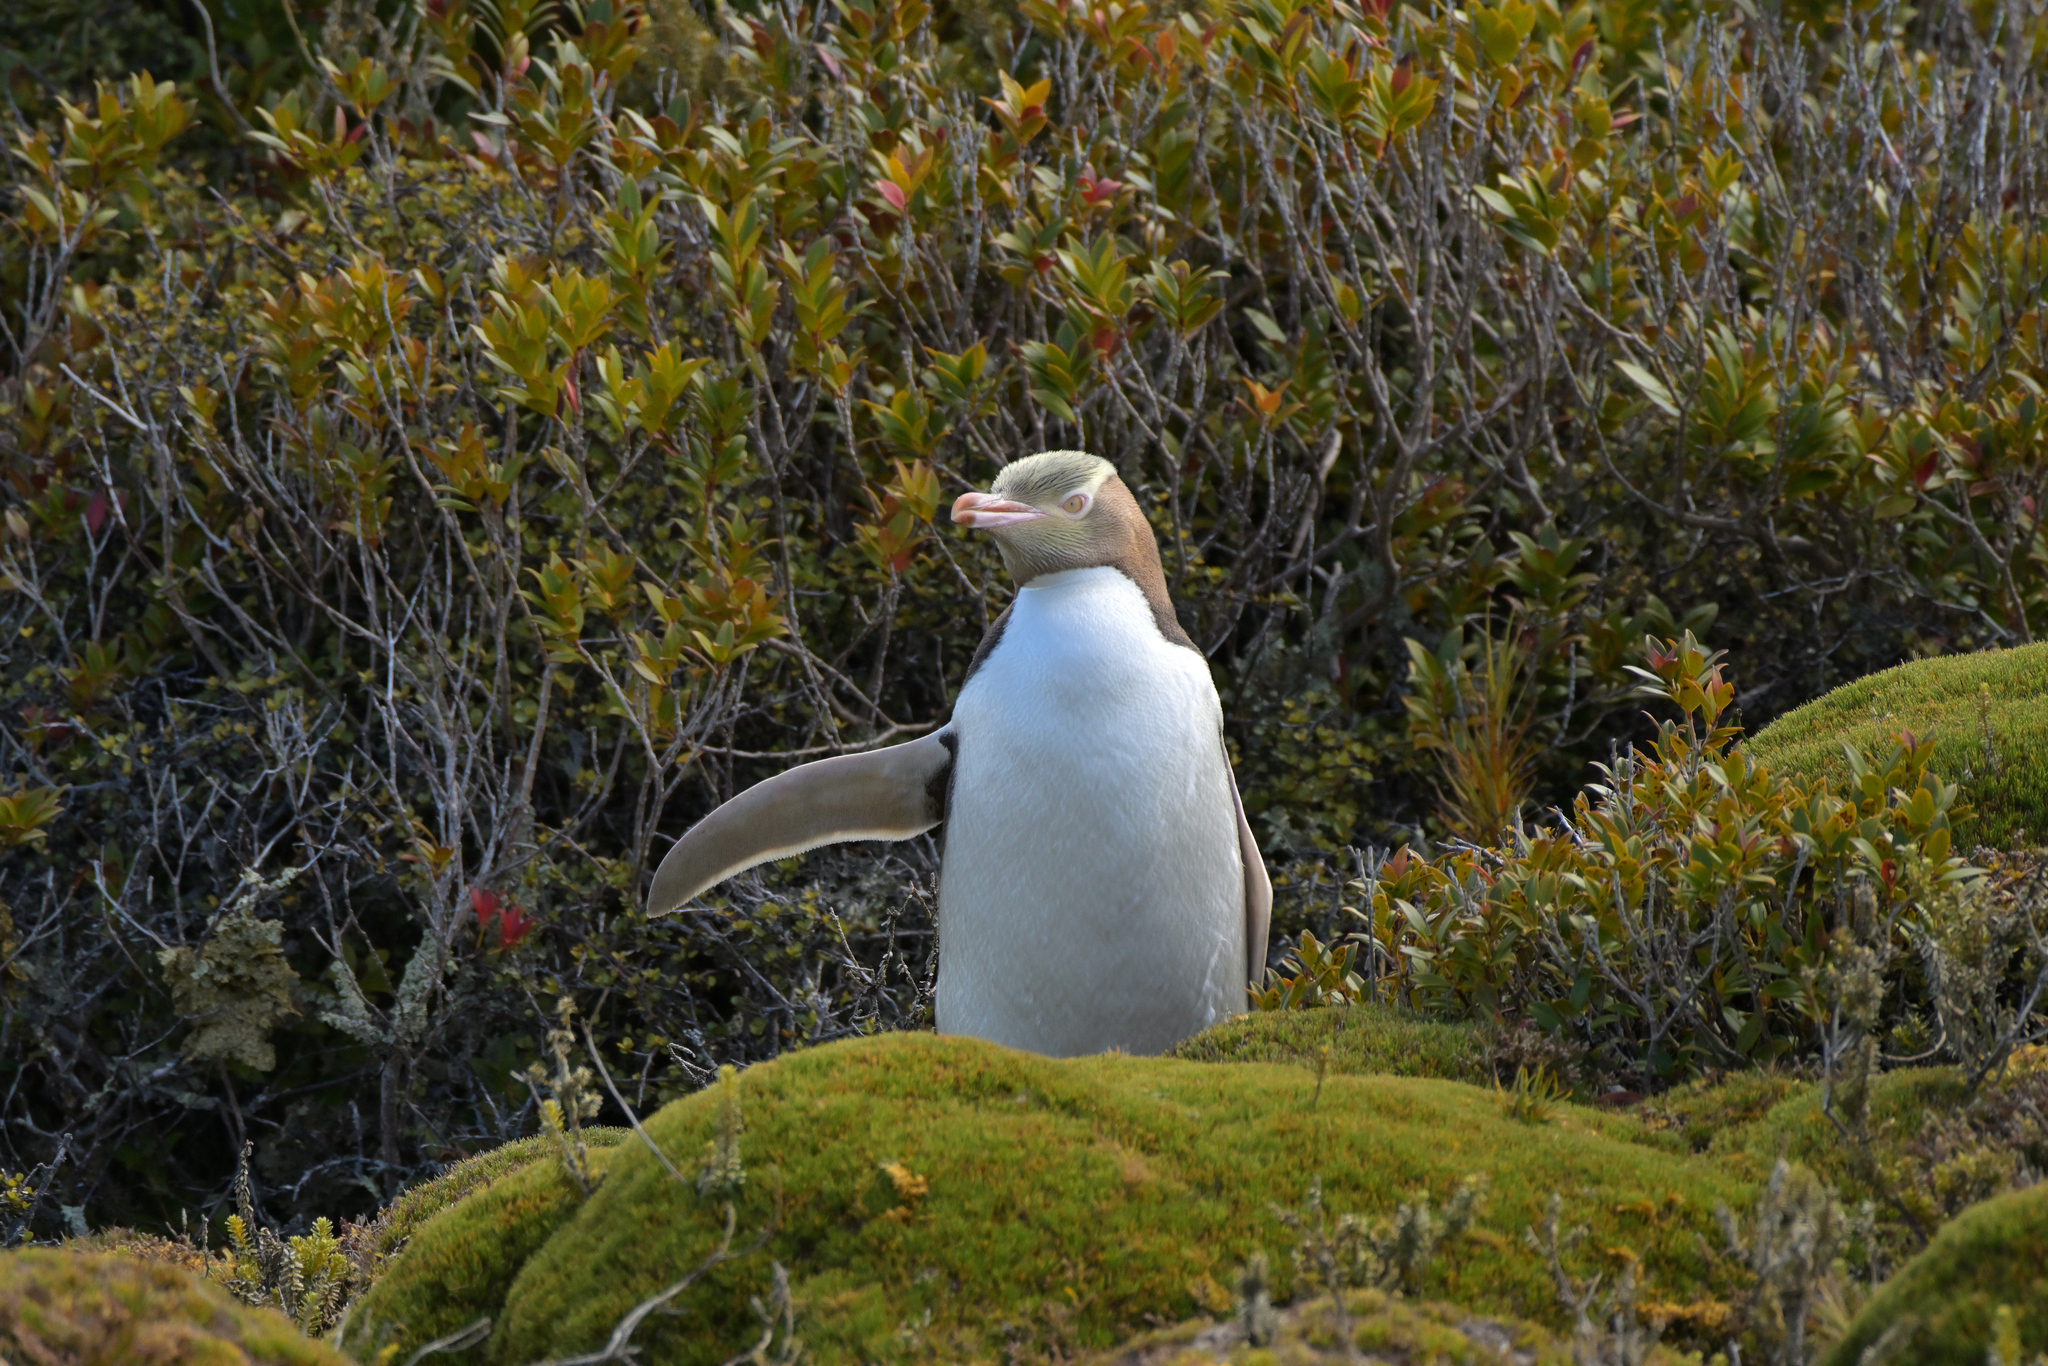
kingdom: Animalia
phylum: Chordata
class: Aves
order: Sphenisciformes
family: Spheniscidae
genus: Megadyptes
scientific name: Megadyptes antipodes
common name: Yellow-eyed penguin
